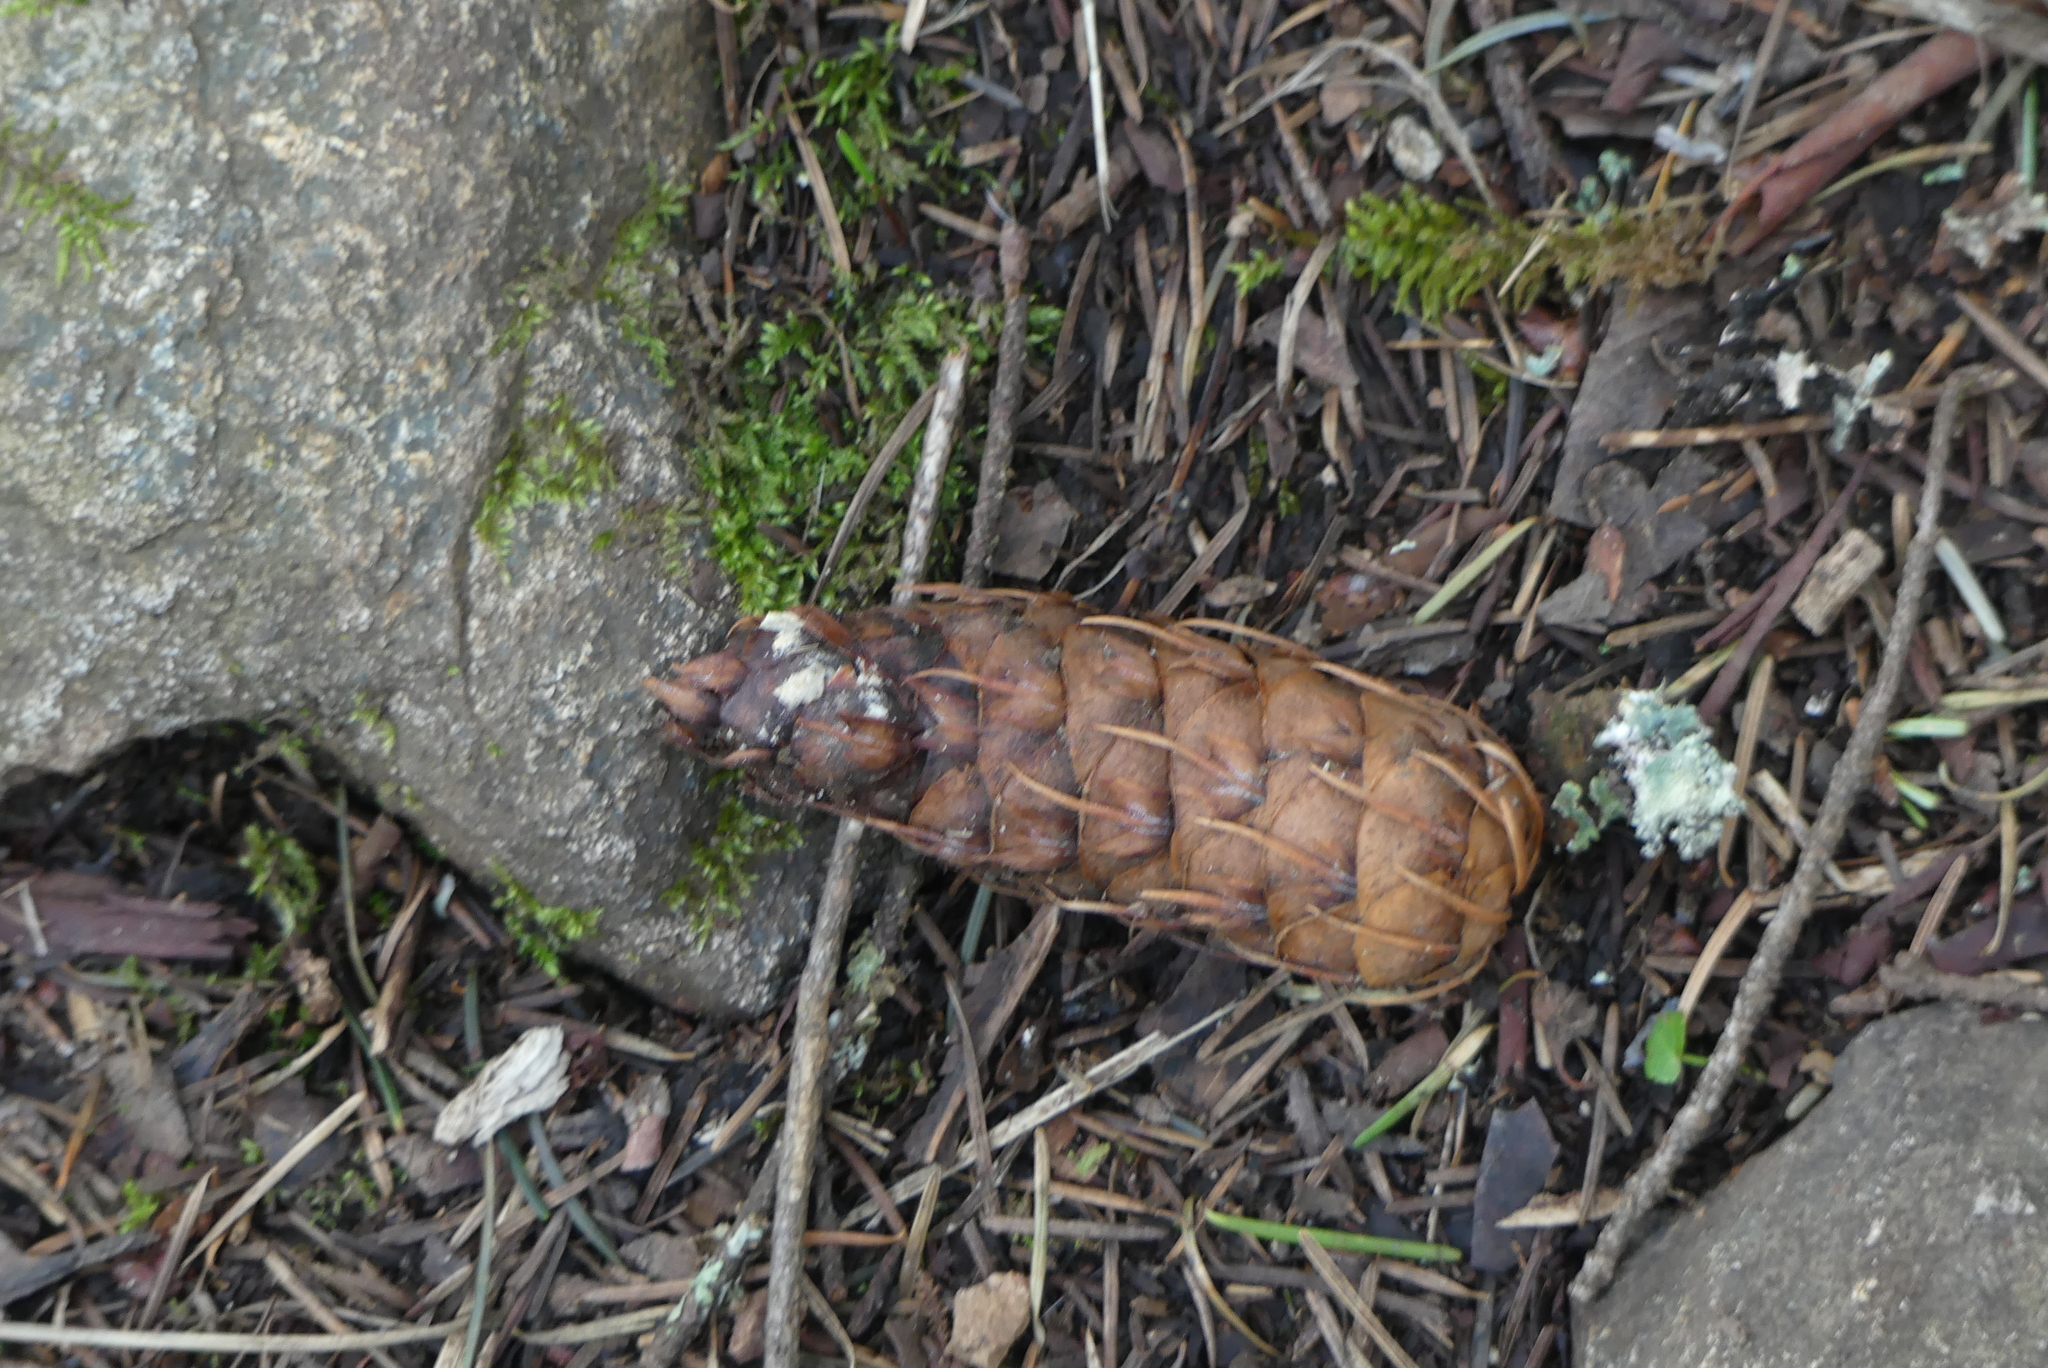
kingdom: Plantae
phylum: Tracheophyta
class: Pinopsida
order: Pinales
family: Pinaceae
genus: Pseudotsuga
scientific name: Pseudotsuga menziesii
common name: Douglas fir
